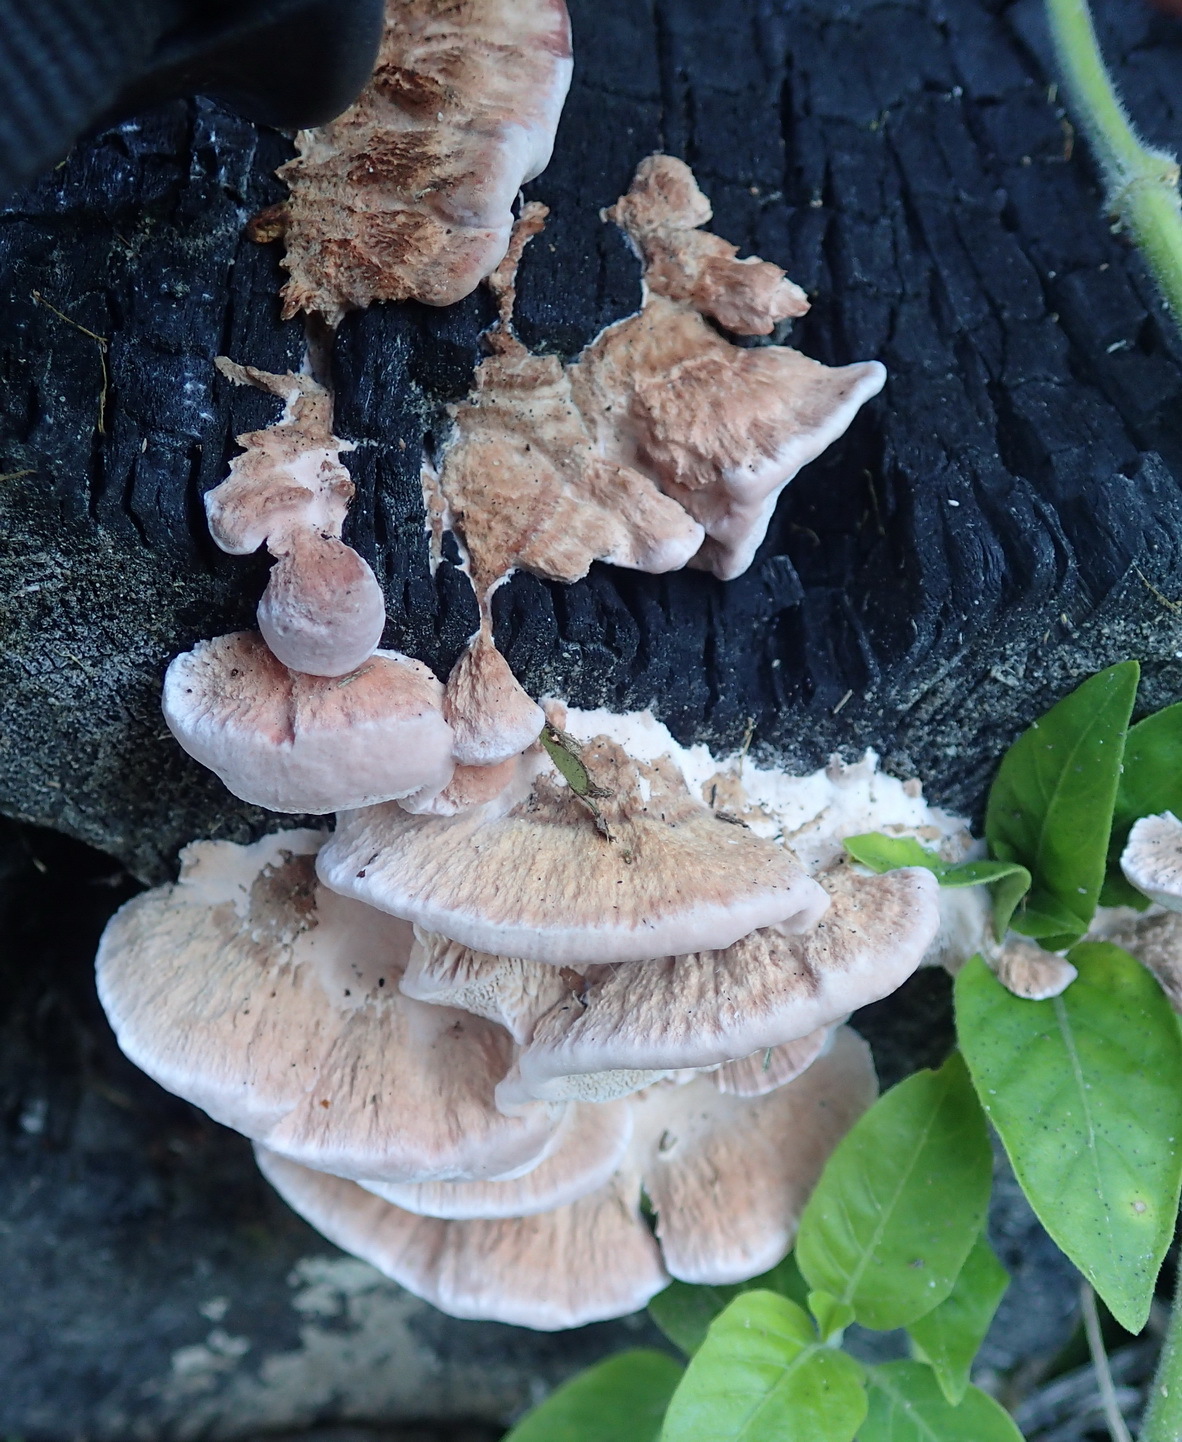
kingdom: Fungi
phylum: Basidiomycota
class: Agaricomycetes
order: Polyporales
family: Fomitopsidaceae
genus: Rhodofomitopsis
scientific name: Rhodofomitopsis lilacinogilva
